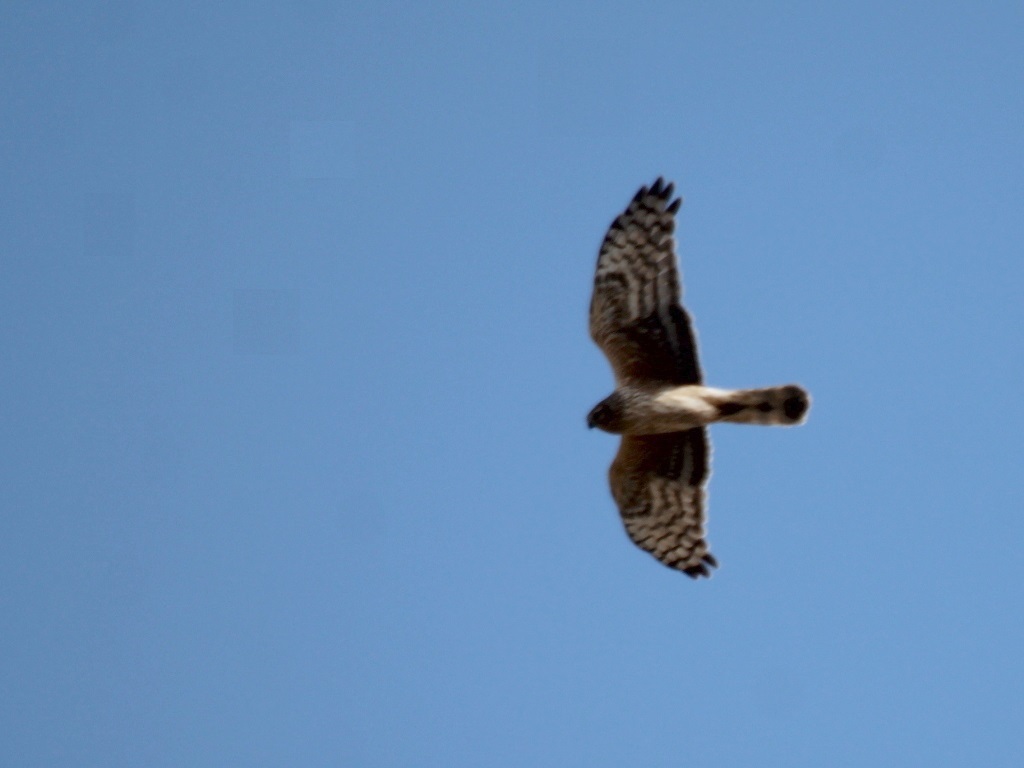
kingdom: Animalia
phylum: Chordata
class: Aves
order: Accipitriformes
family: Accipitridae
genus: Circus
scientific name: Circus cyaneus
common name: Hen harrier
